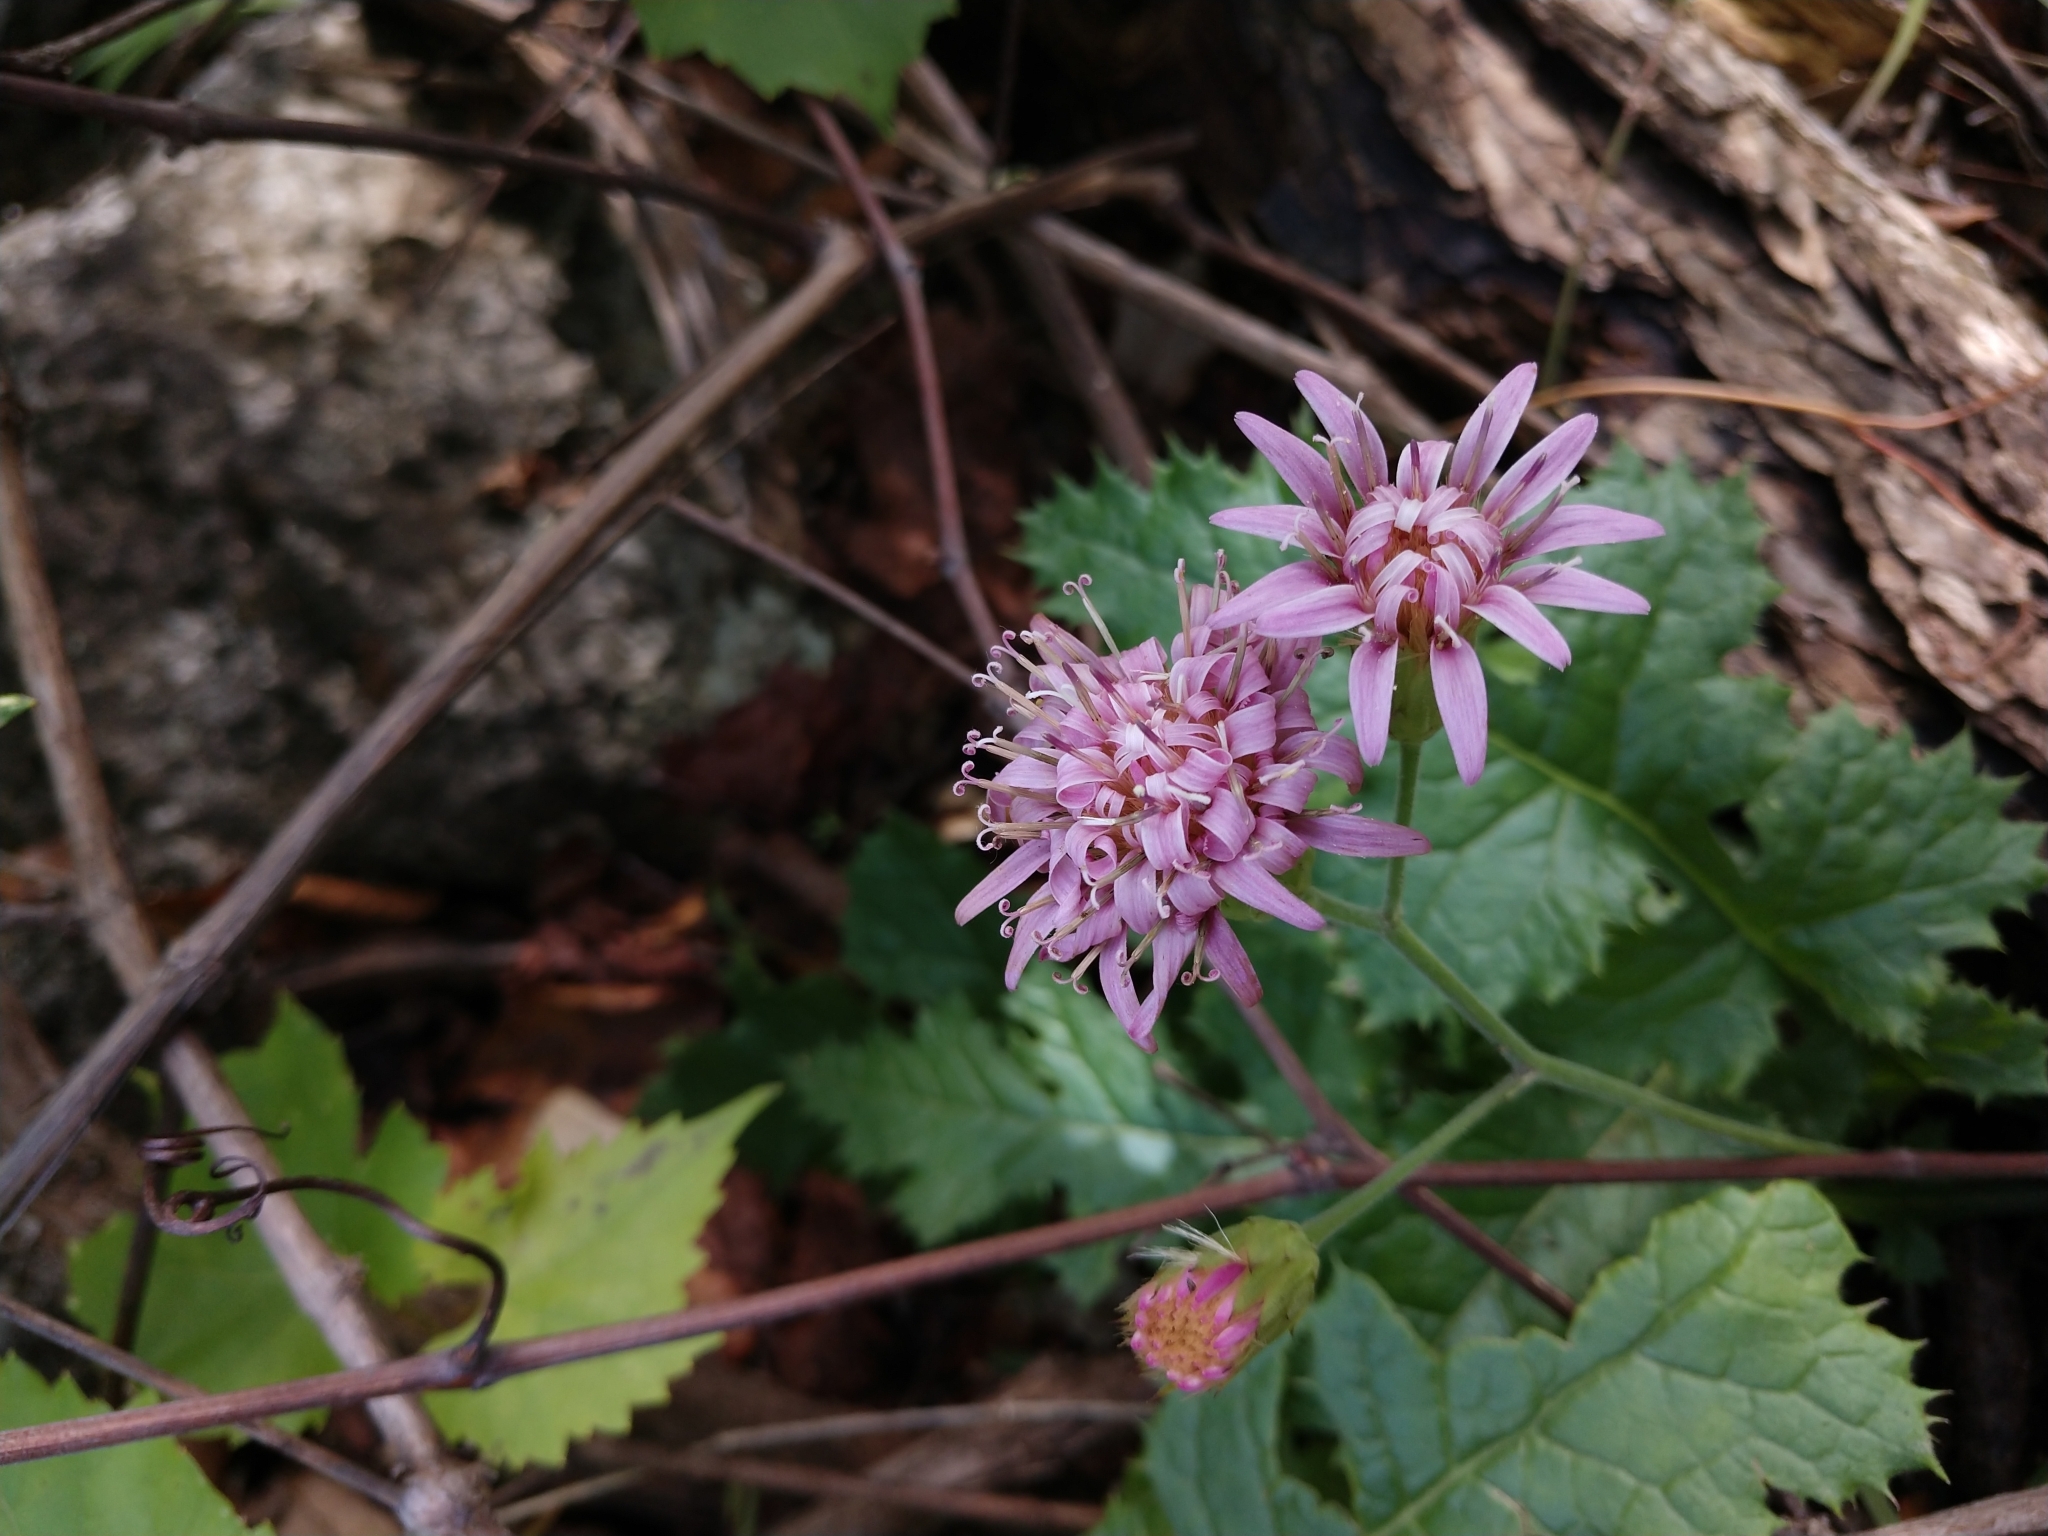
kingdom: Plantae
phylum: Tracheophyta
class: Magnoliopsida
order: Asterales
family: Asteraceae
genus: Acourtia
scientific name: Acourtia runcinata
